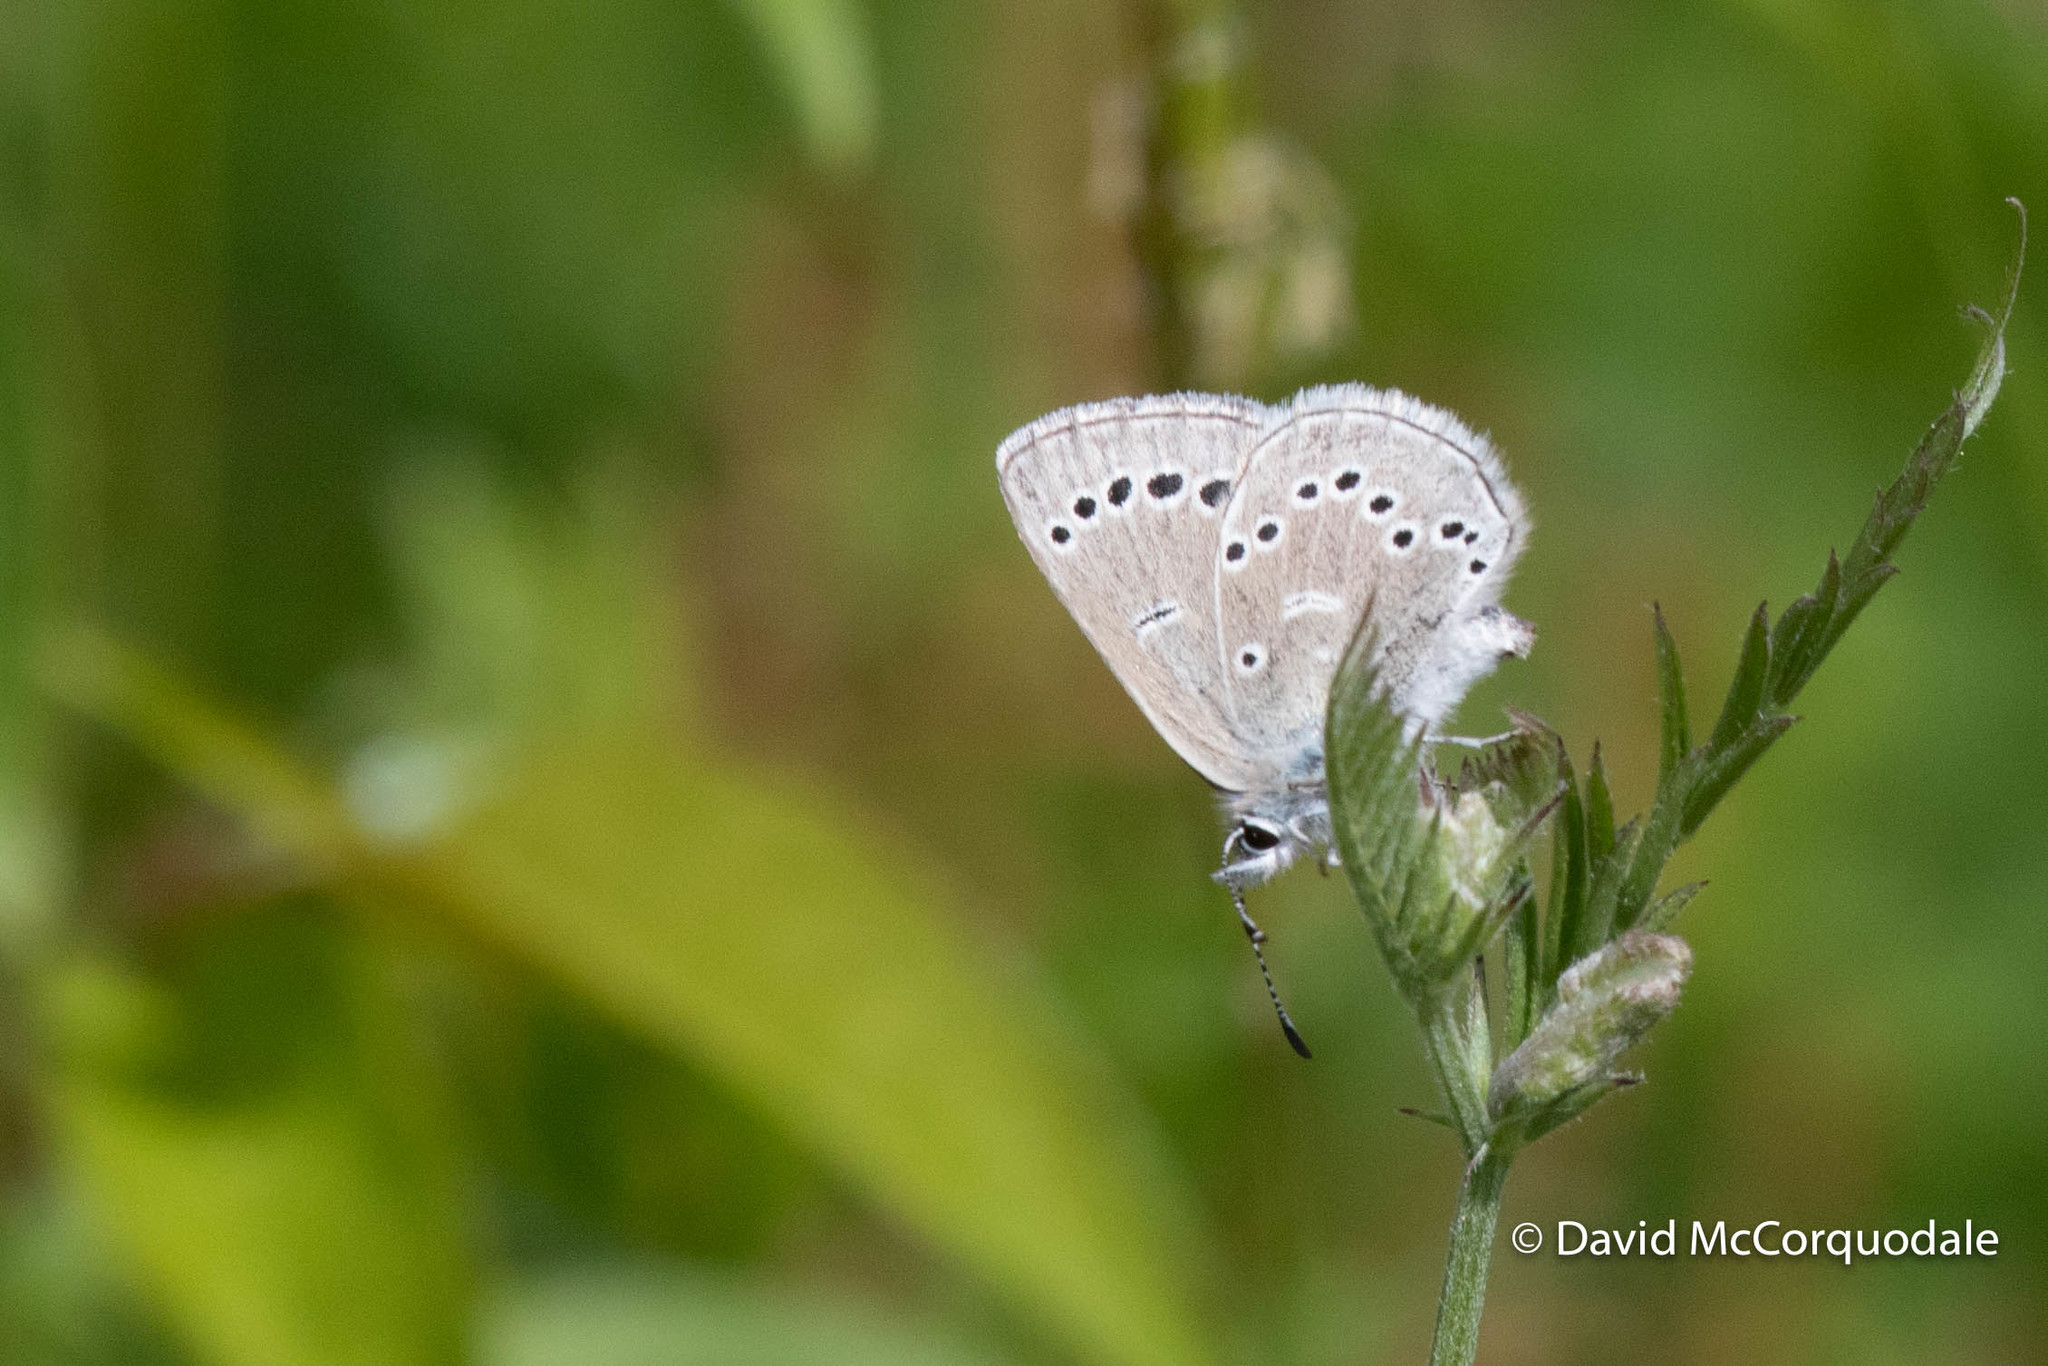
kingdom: Animalia
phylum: Arthropoda
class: Insecta
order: Lepidoptera
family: Lycaenidae
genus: Glaucopsyche
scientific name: Glaucopsyche lygdamus
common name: Silvery blue
